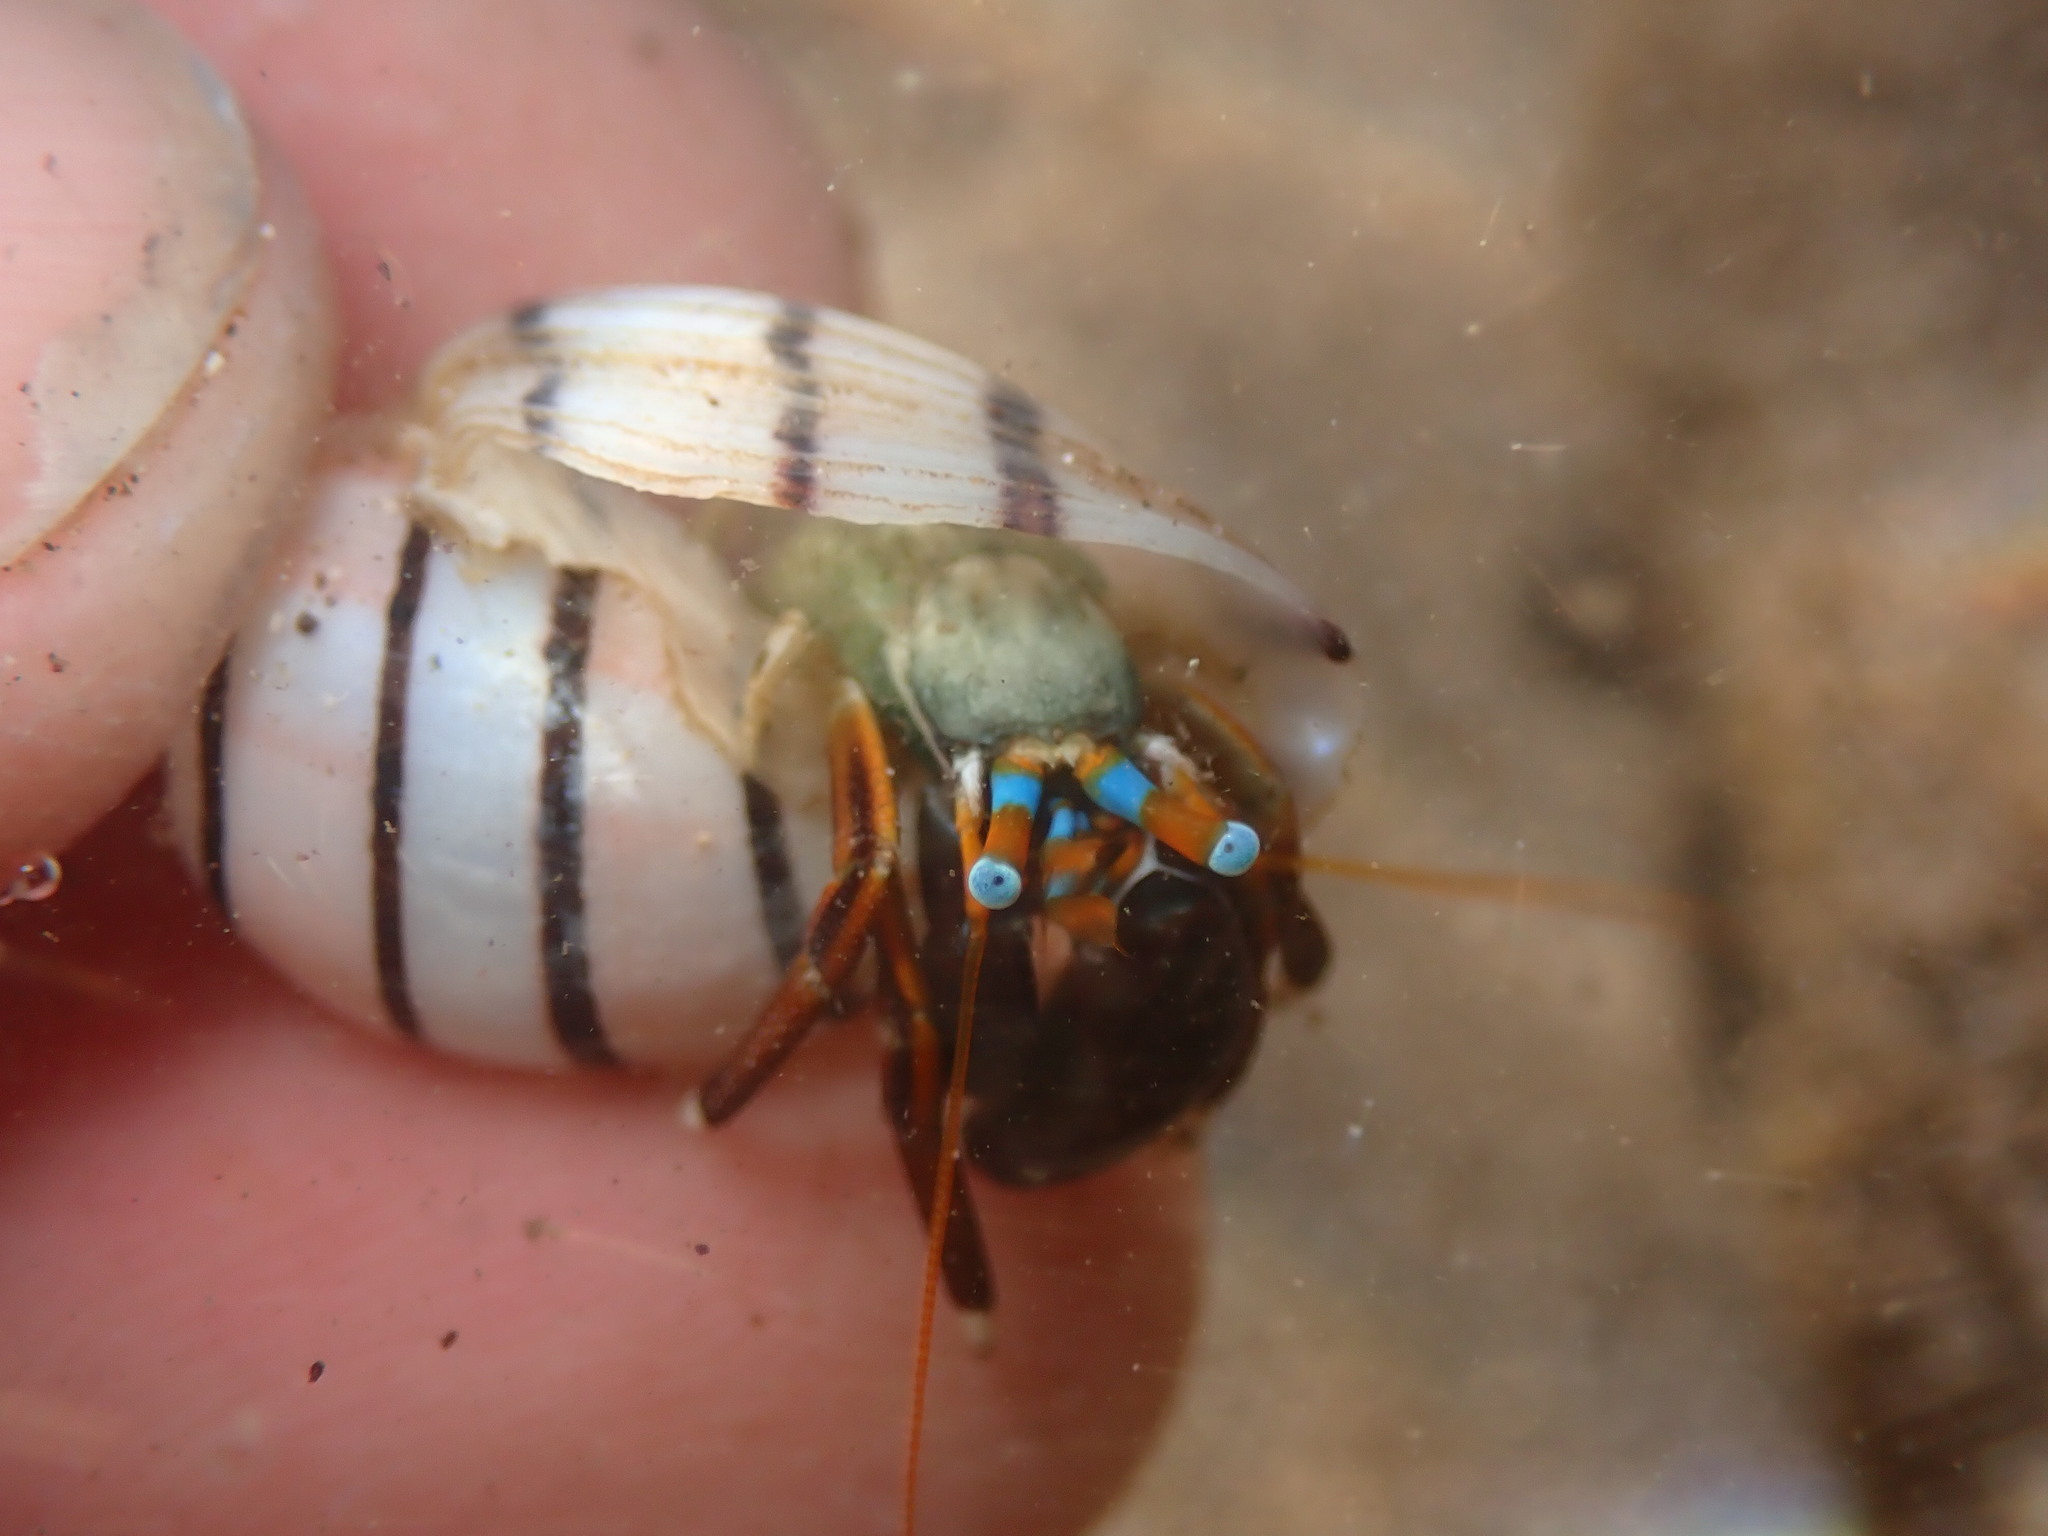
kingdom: Animalia
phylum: Arthropoda
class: Malacostraca
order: Decapoda
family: Diogenidae
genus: Calcinus
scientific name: Calcinus laevimanus
